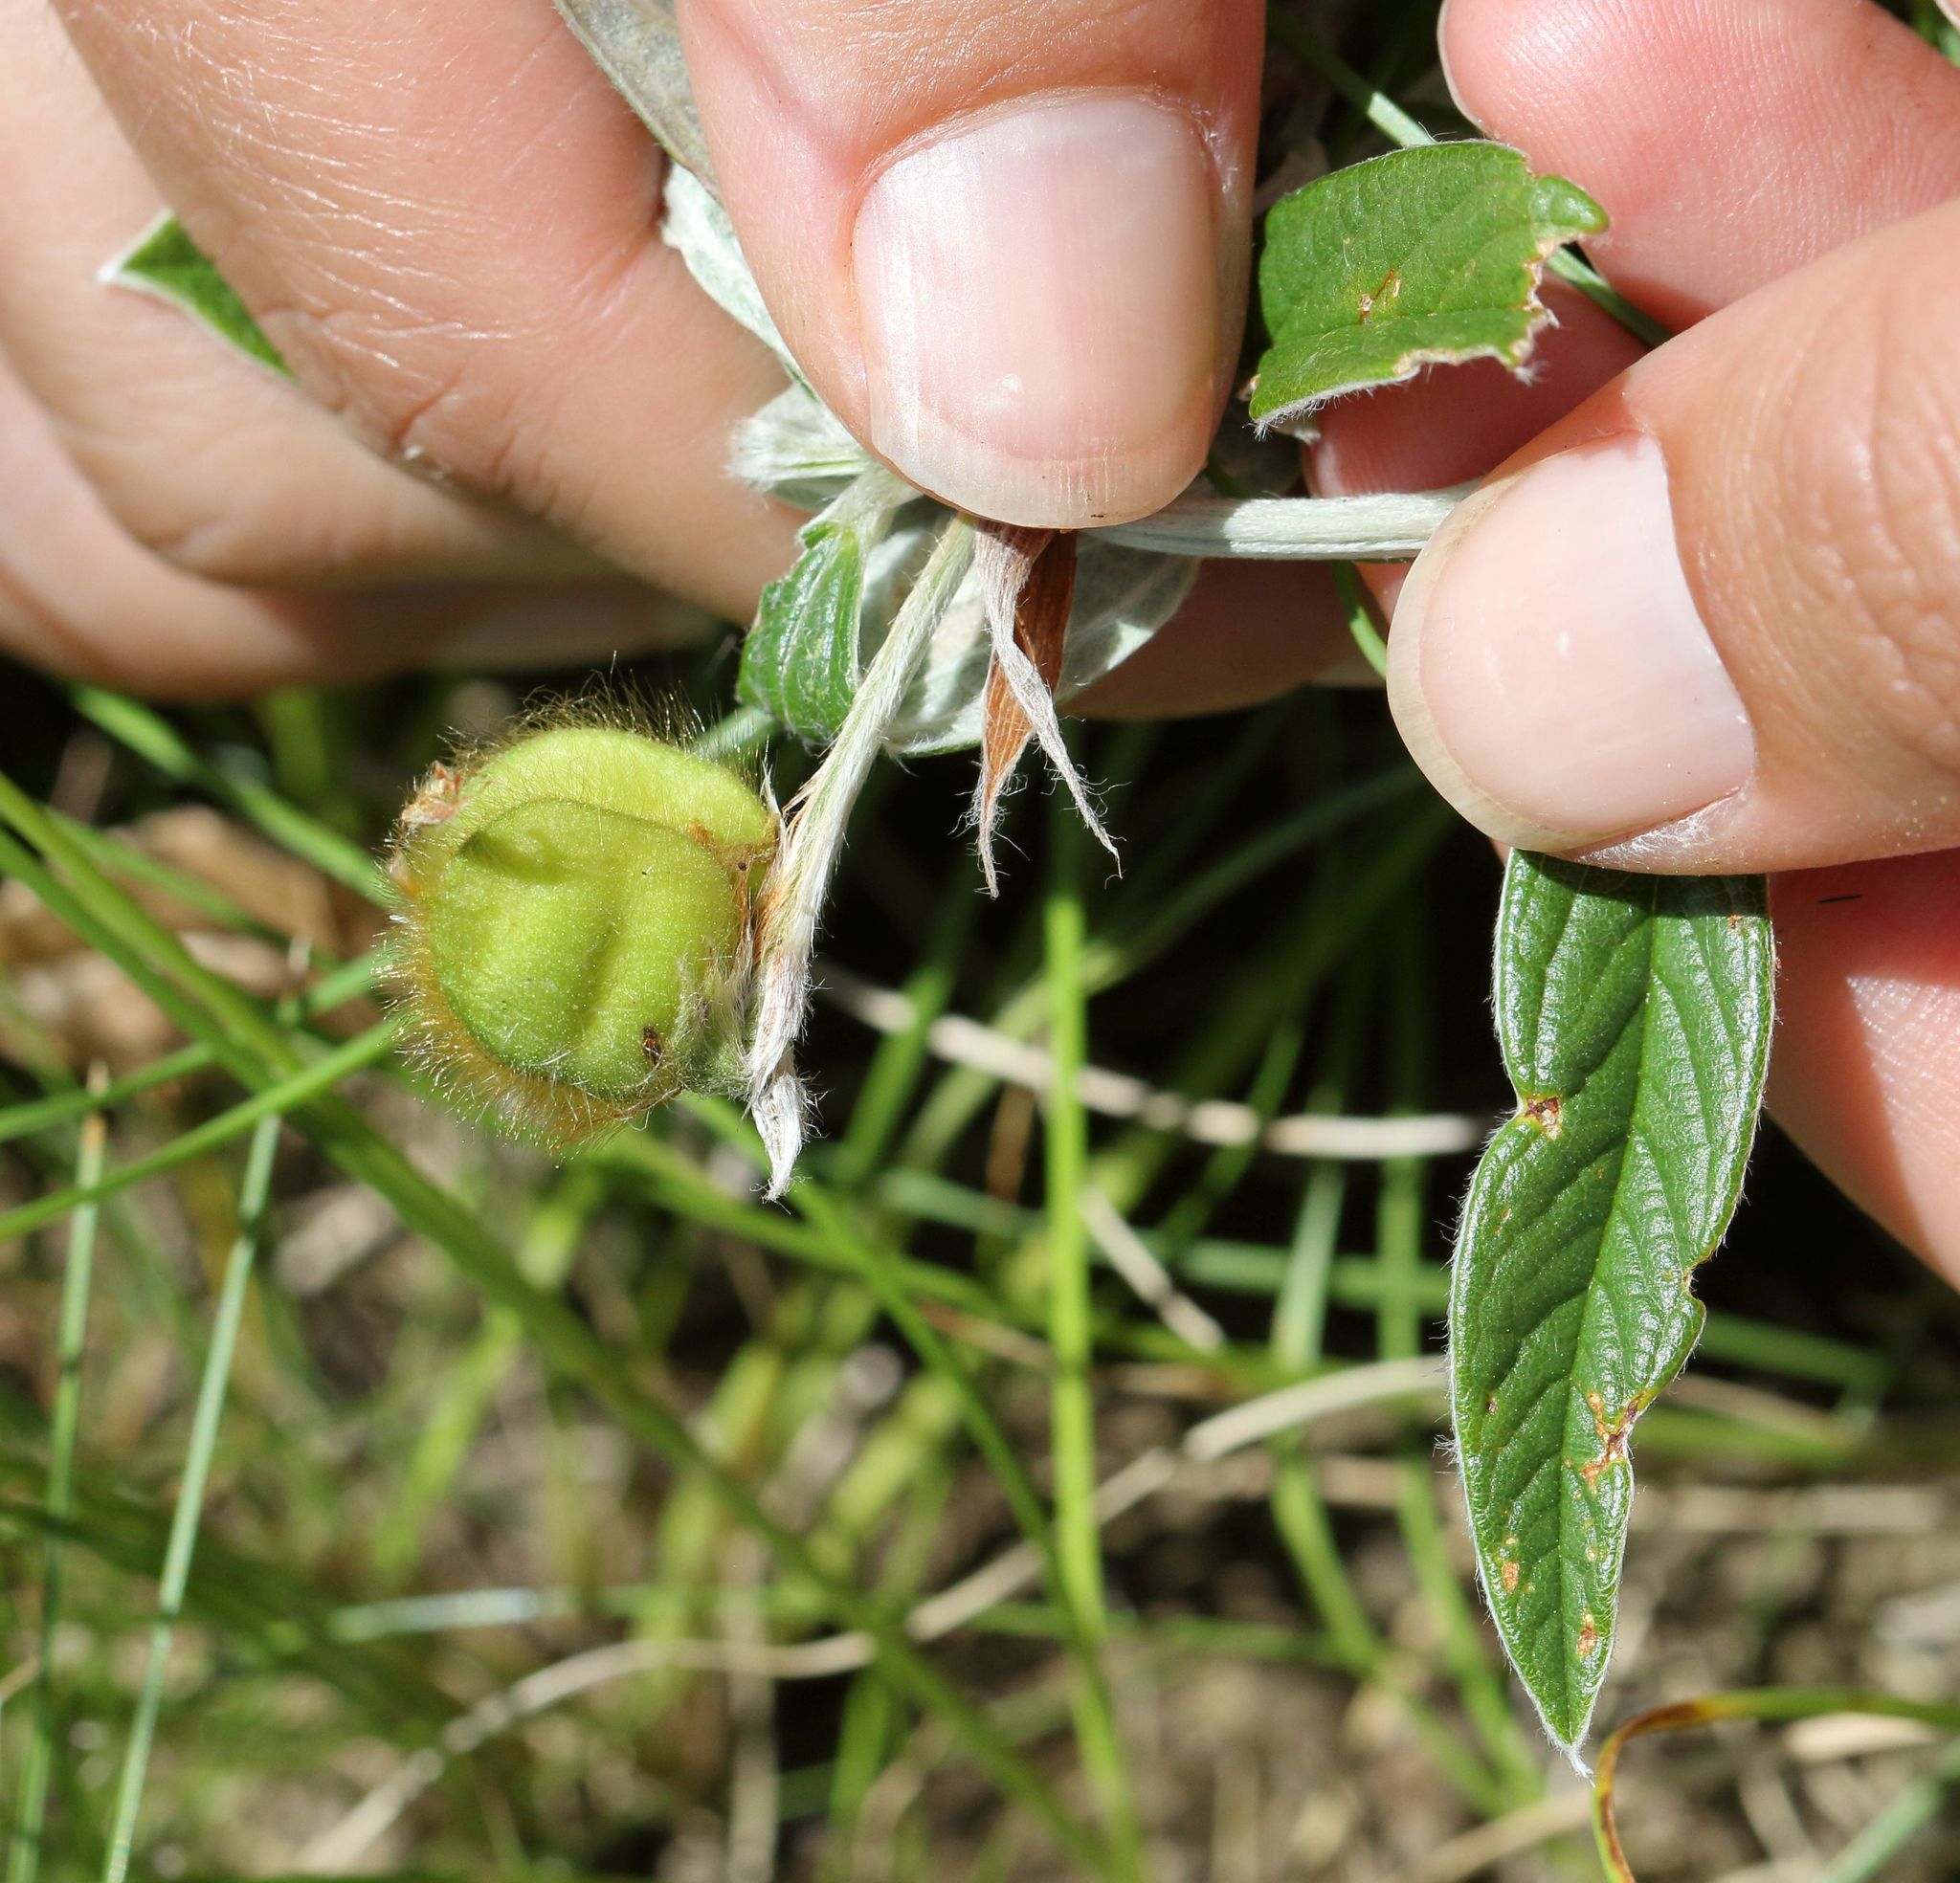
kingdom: Plantae
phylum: Tracheophyta
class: Magnoliopsida
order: Fabales
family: Fabaceae
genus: Eriosema
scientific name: Eriosema salignum
